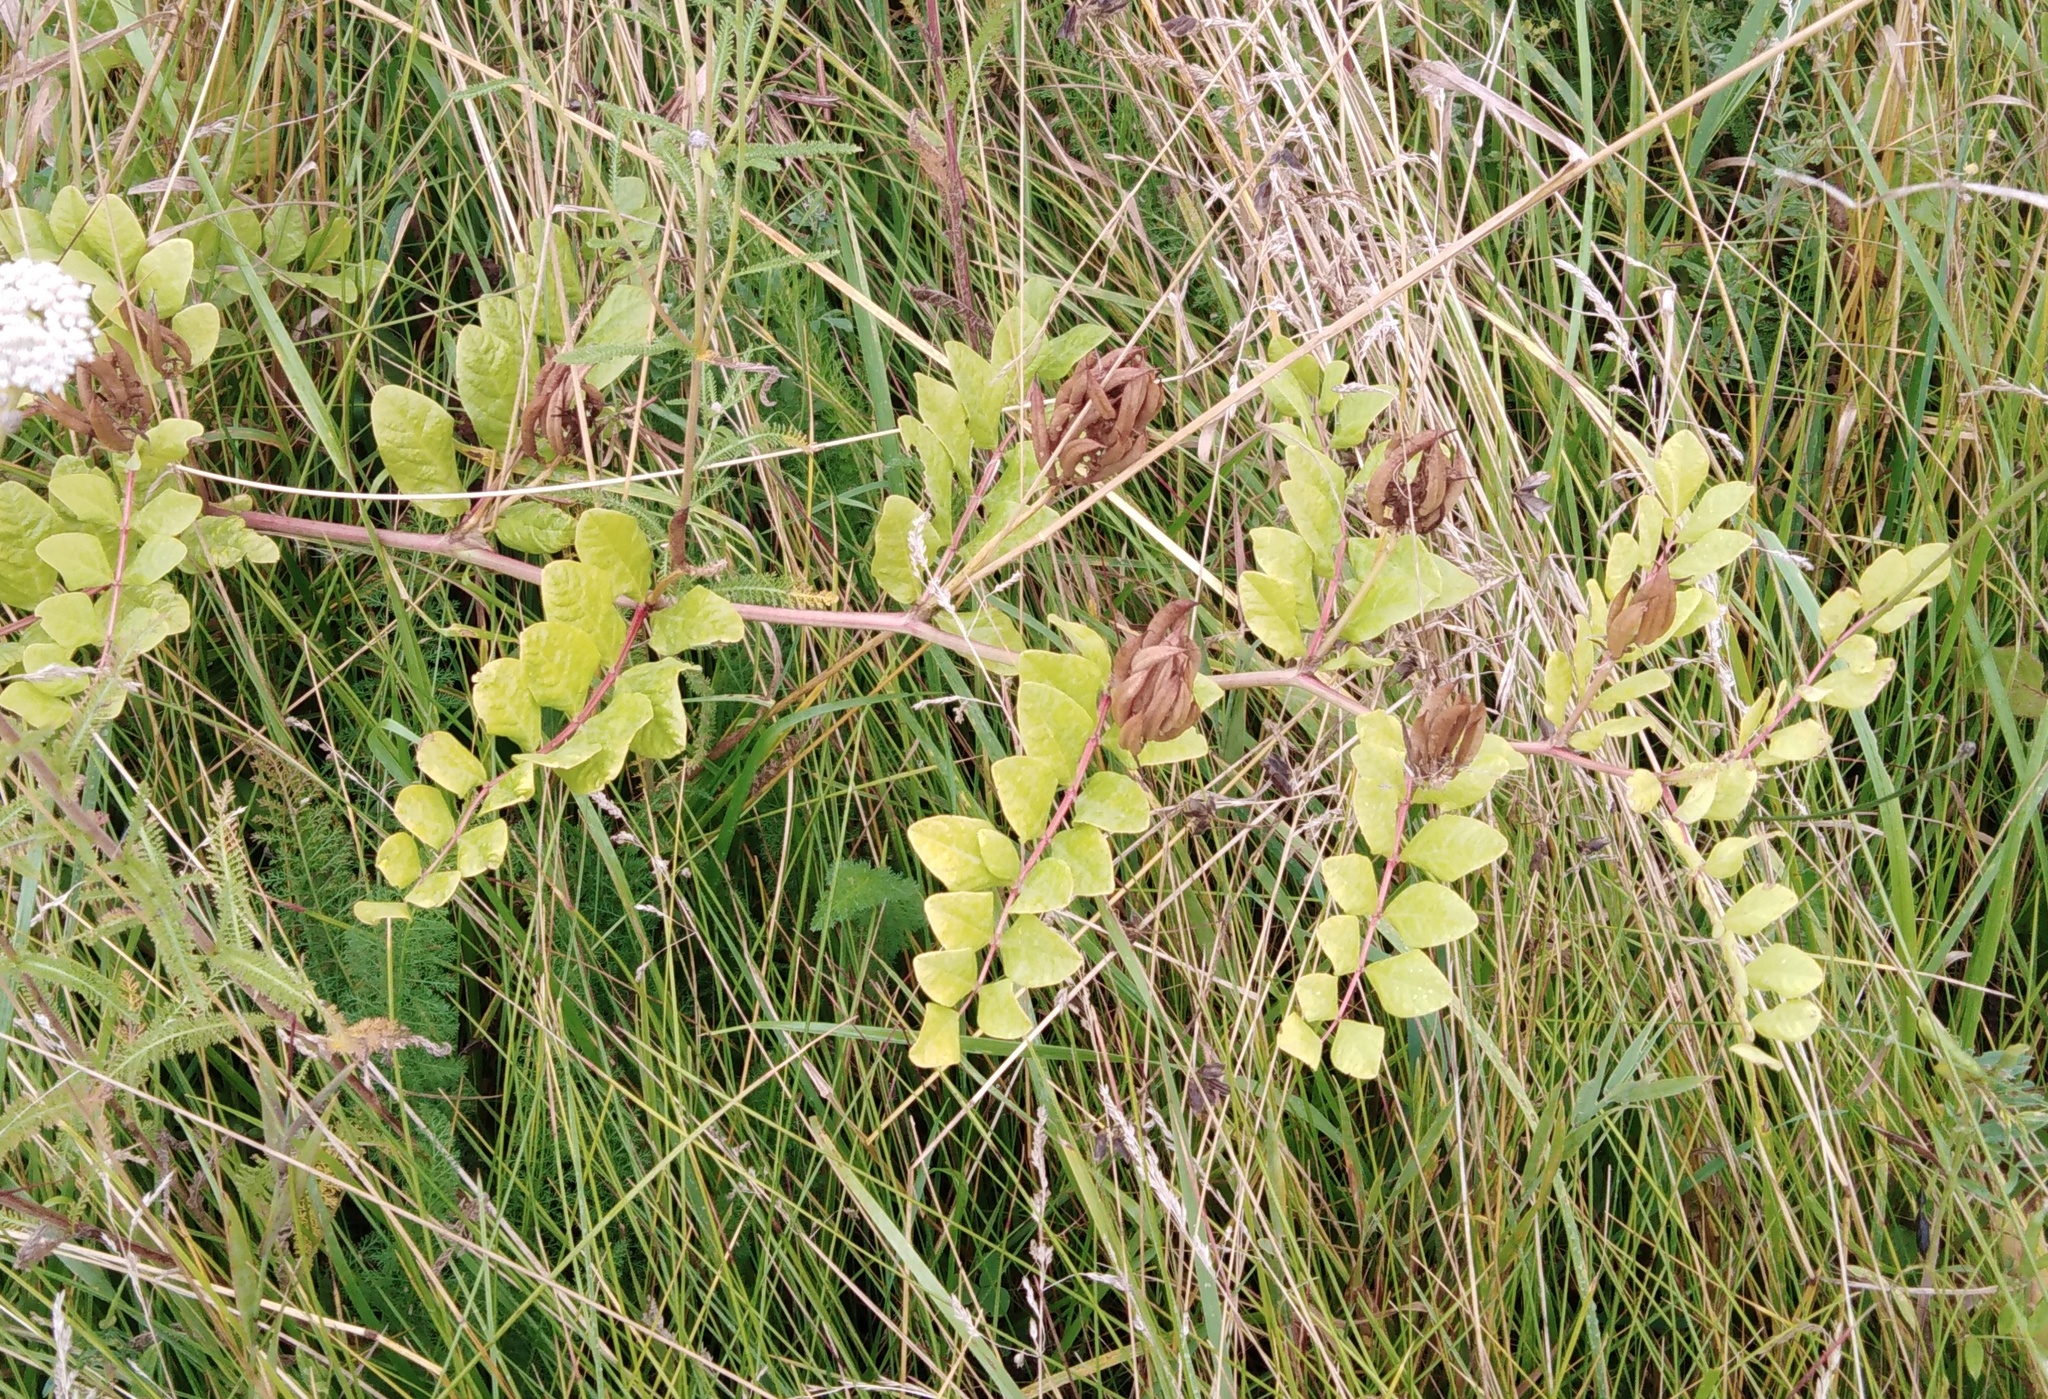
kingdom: Plantae
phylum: Tracheophyta
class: Magnoliopsida
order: Fabales
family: Fabaceae
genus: Astragalus
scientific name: Astragalus glycyphyllos
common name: Wild liquorice
